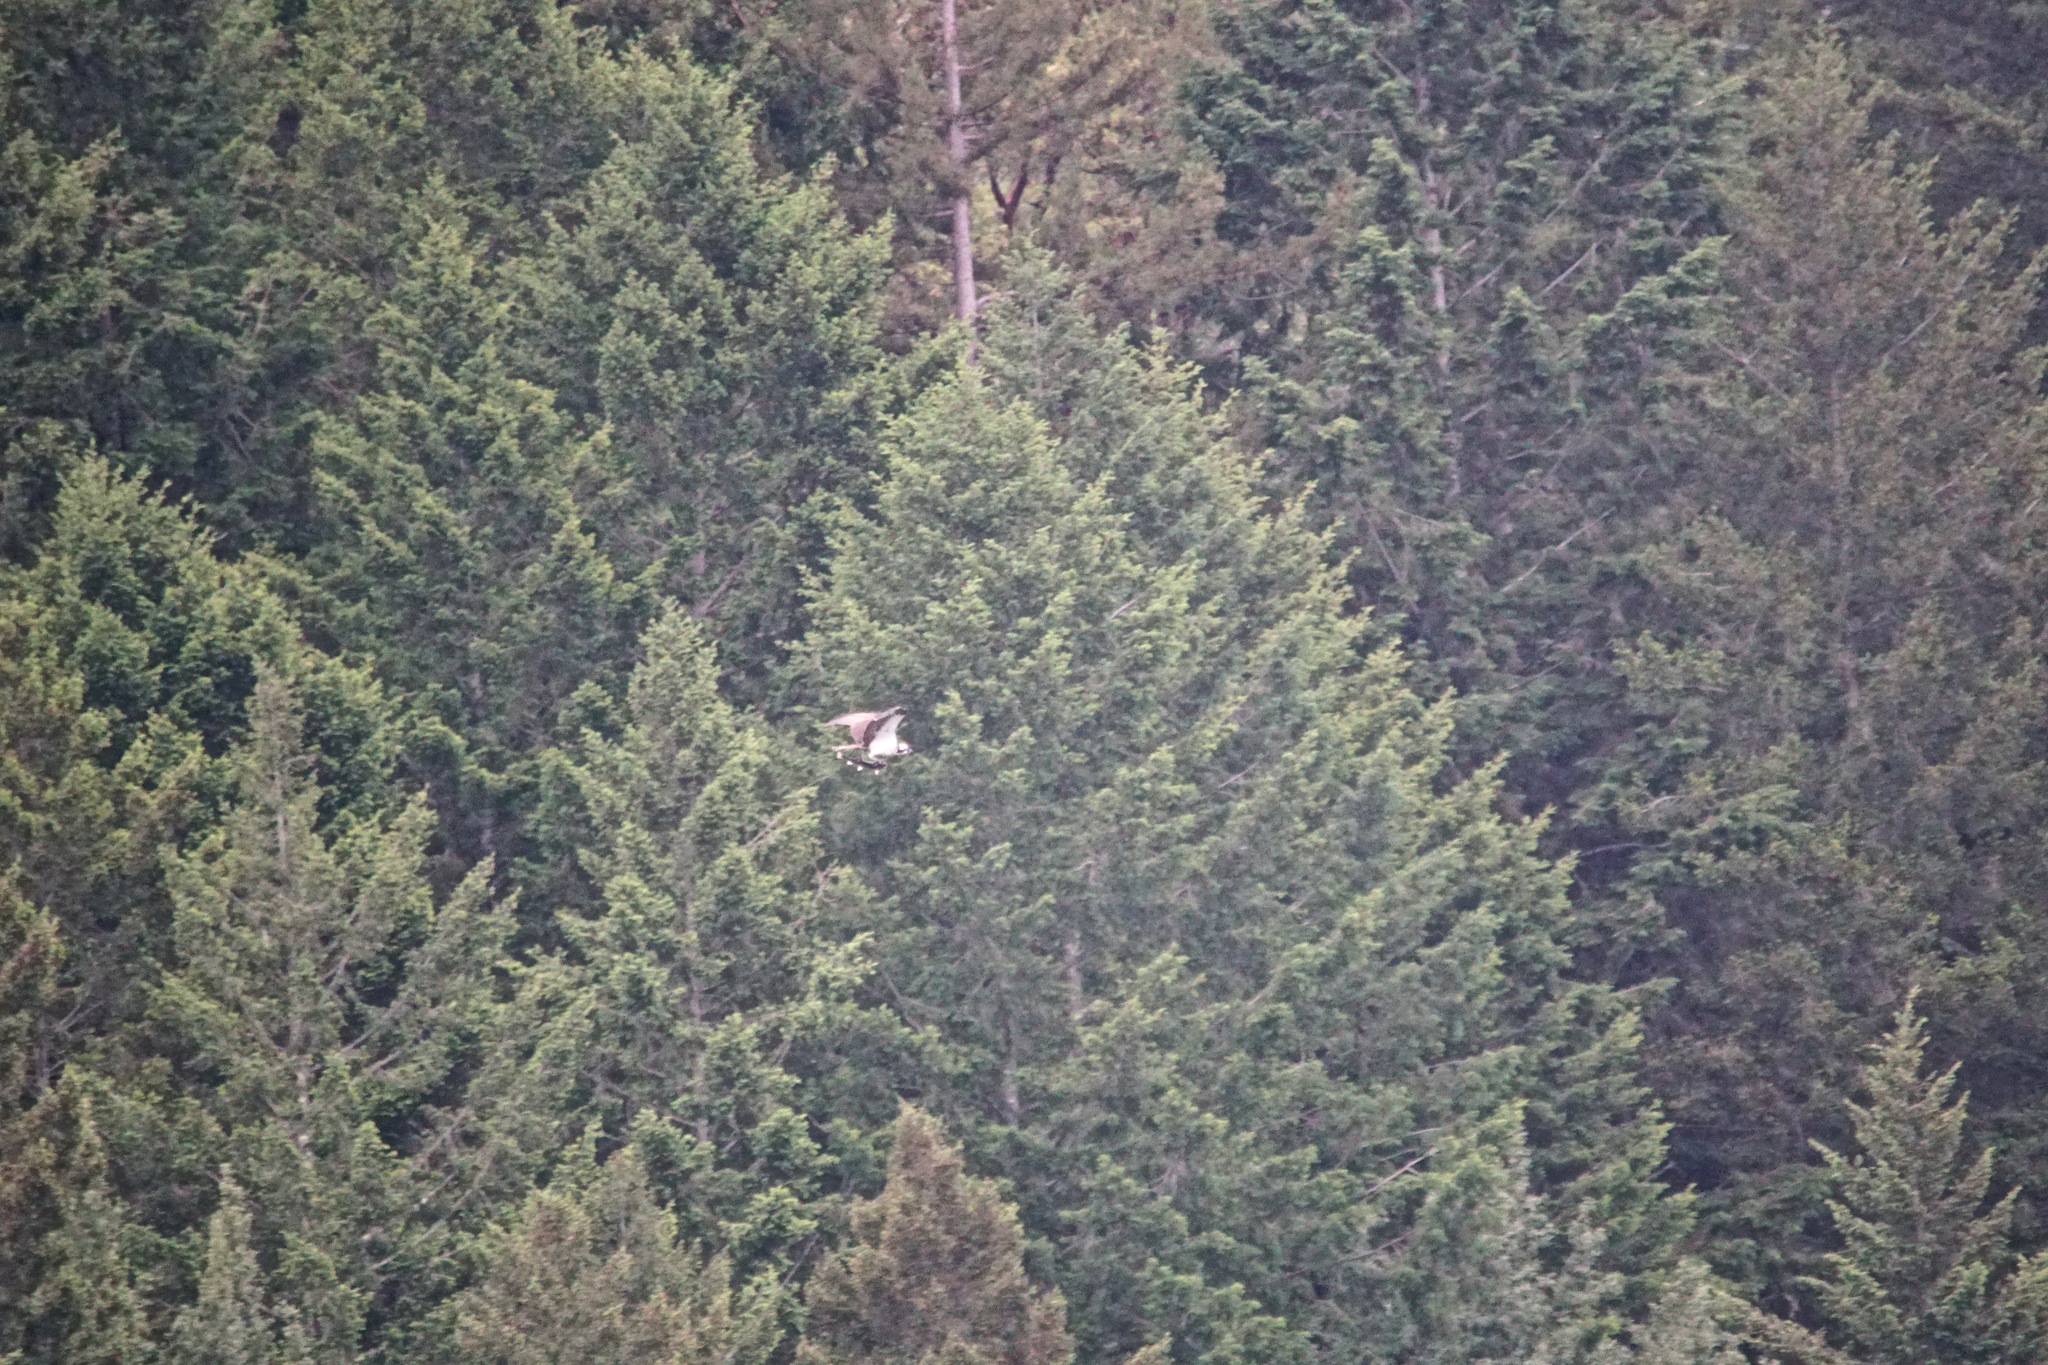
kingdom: Animalia
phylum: Chordata
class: Aves
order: Accipitriformes
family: Pandionidae
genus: Pandion
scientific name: Pandion haliaetus
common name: Osprey
